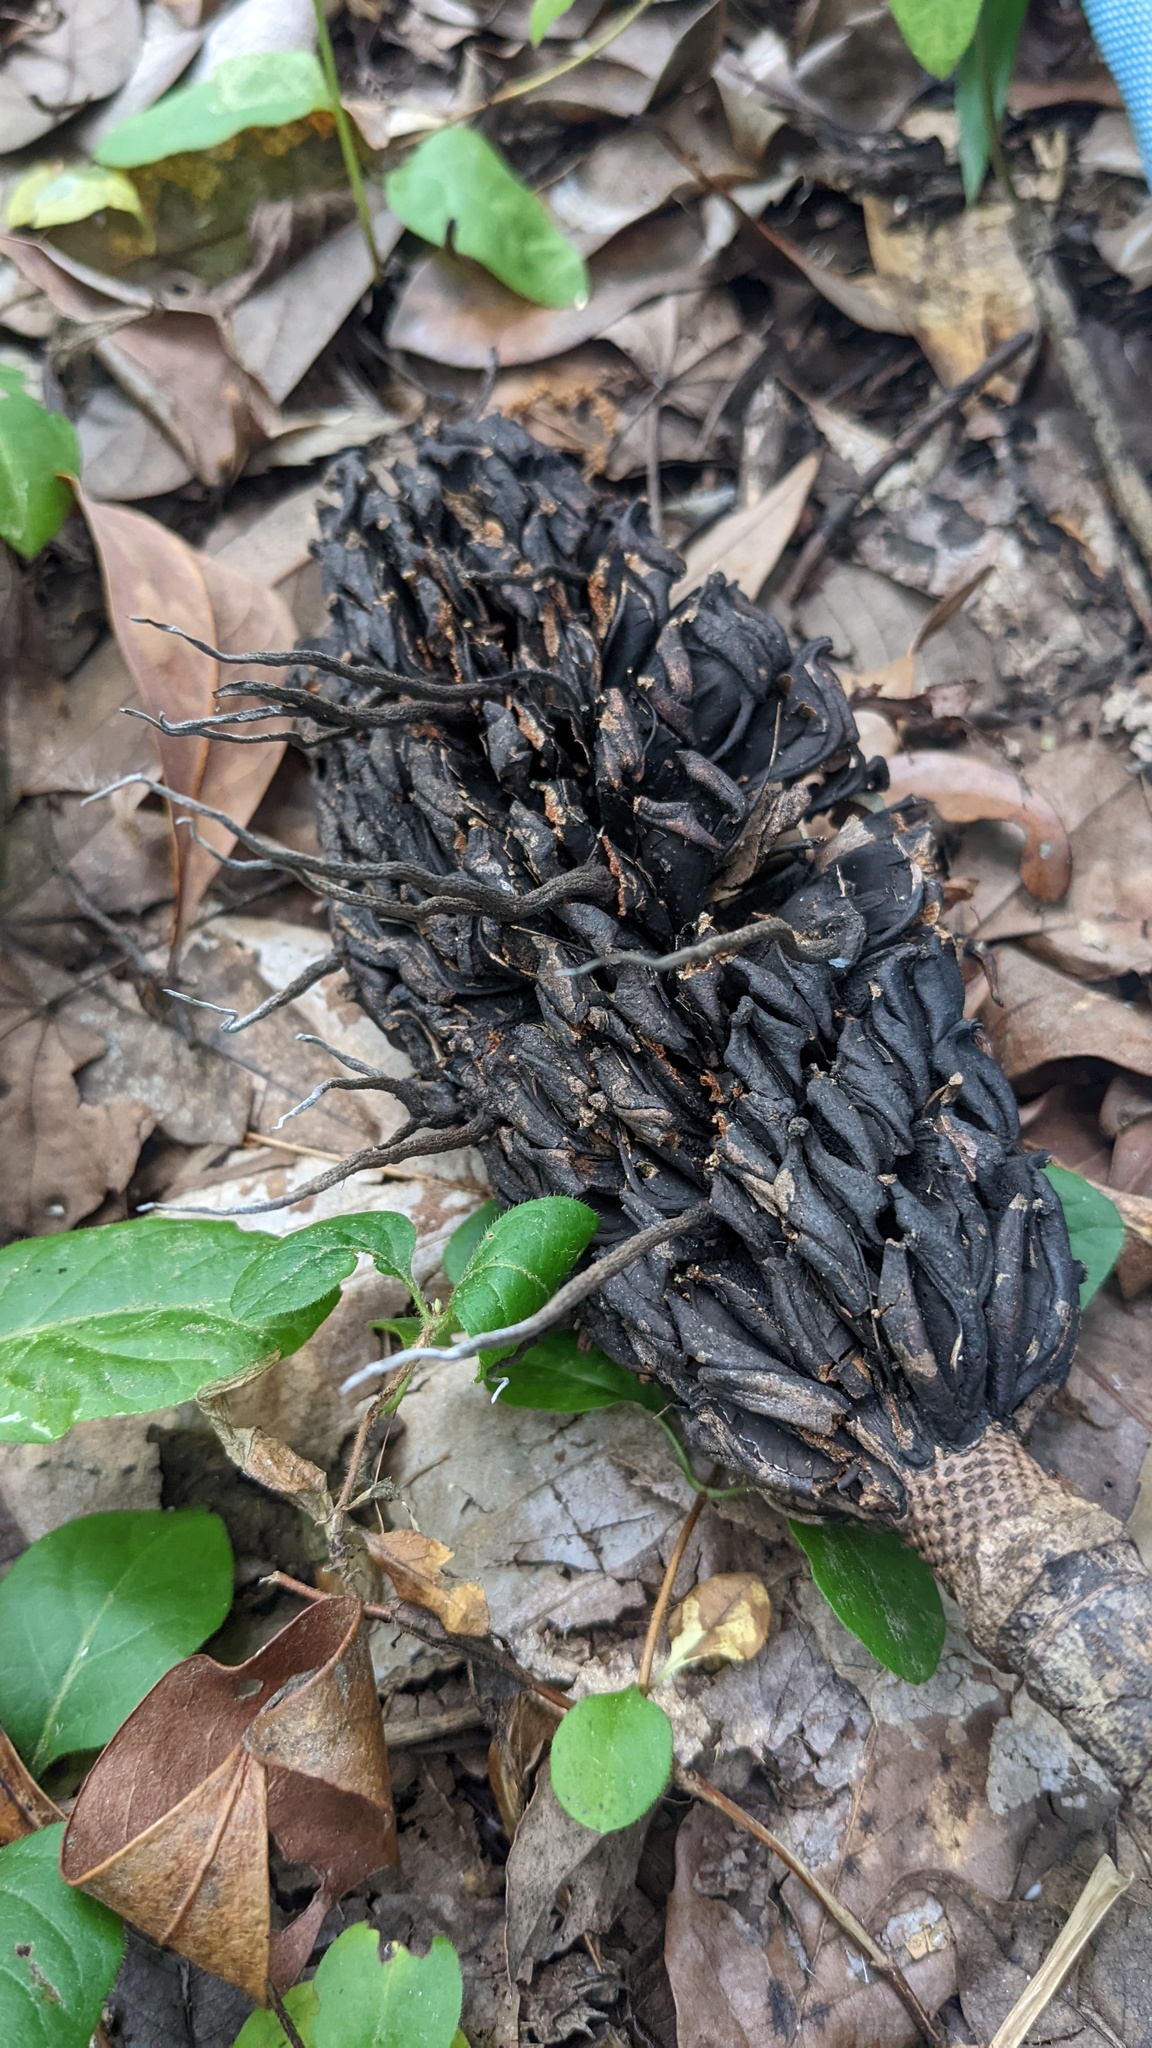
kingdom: Fungi
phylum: Ascomycota
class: Sordariomycetes
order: Xylariales
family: Xylariaceae
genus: Xylaria
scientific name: Xylaria magnoliae
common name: Magnolia-cone xylaria
